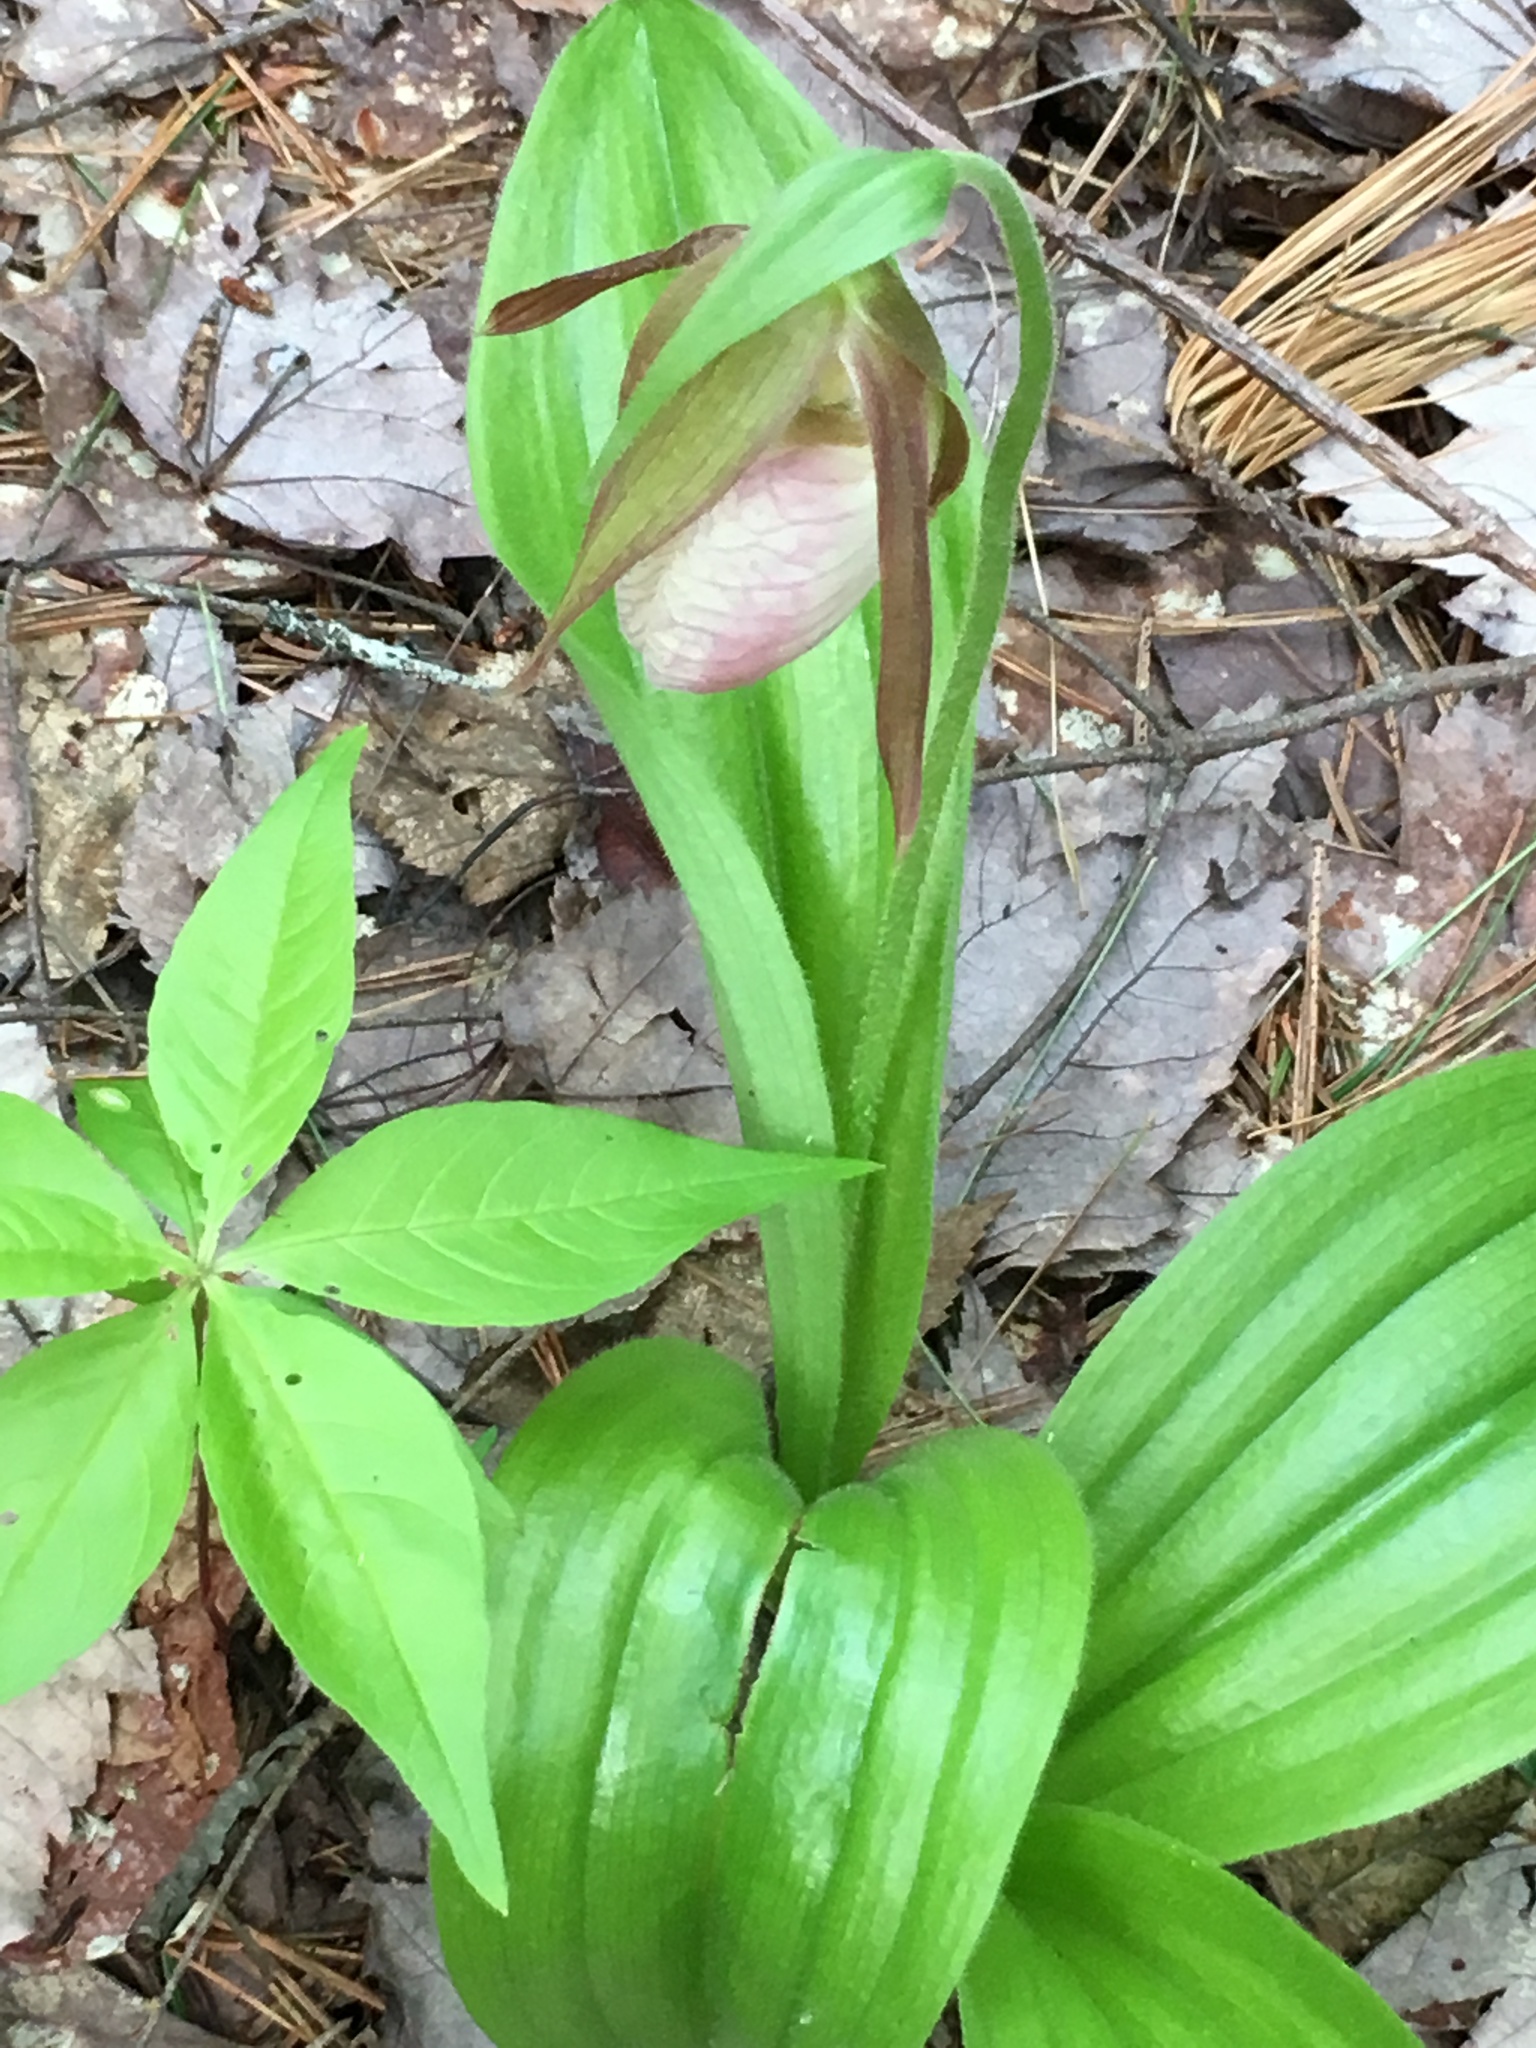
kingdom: Plantae
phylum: Tracheophyta
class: Liliopsida
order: Asparagales
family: Orchidaceae
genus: Cypripedium
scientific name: Cypripedium acaule
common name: Pink lady's-slipper
